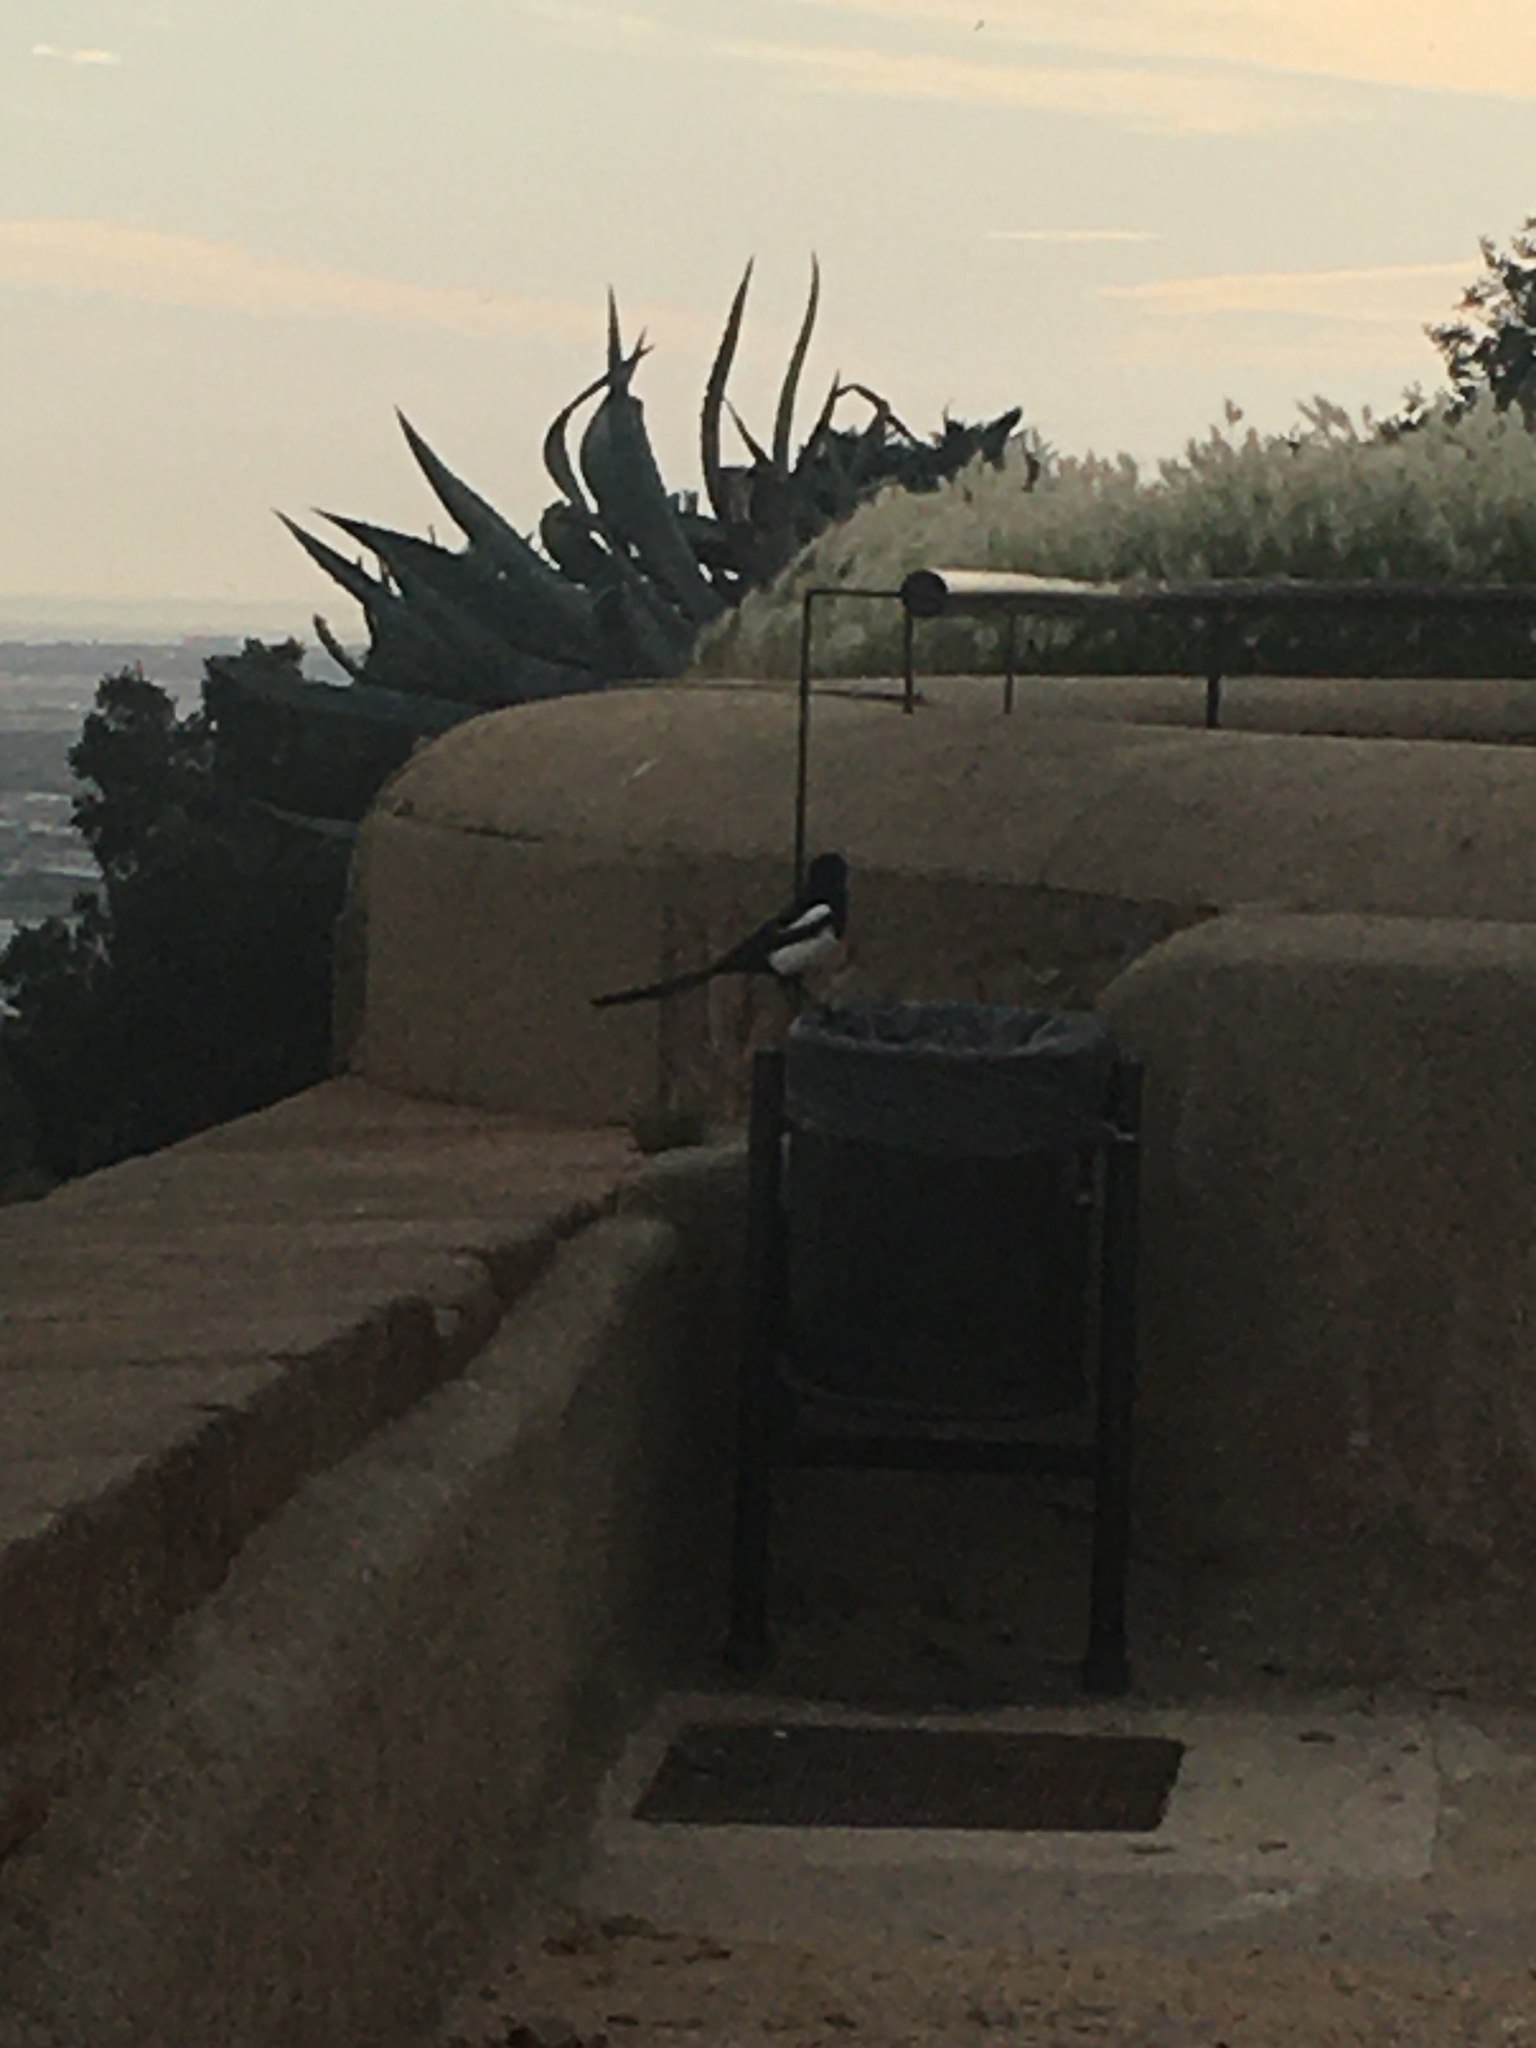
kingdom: Animalia
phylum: Chordata
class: Aves
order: Passeriformes
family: Corvidae
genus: Pica
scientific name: Pica pica
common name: Eurasian magpie
